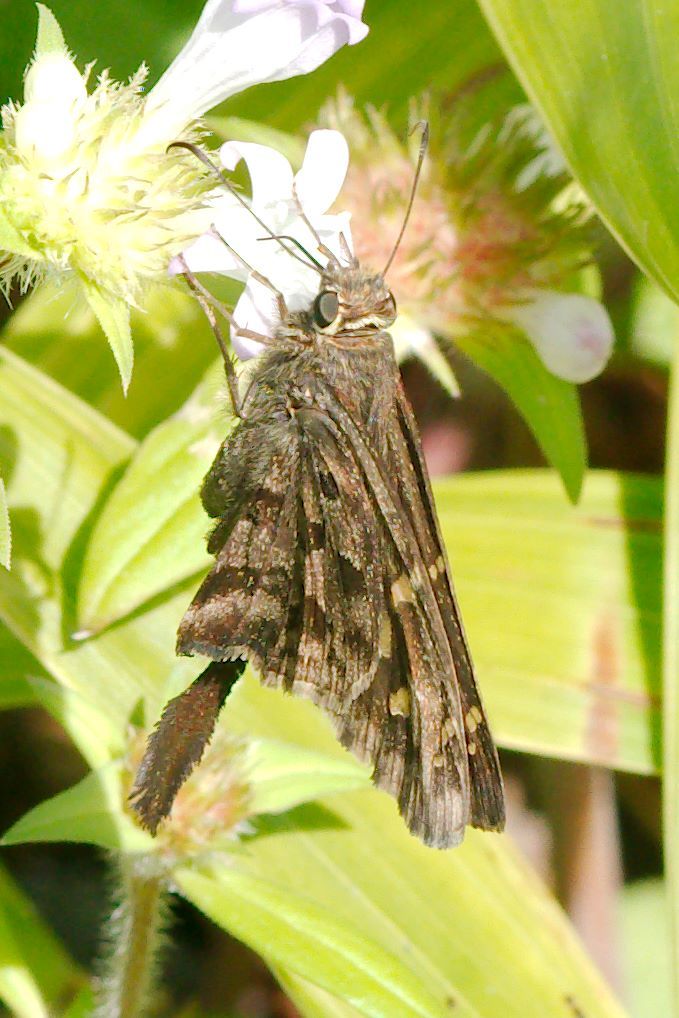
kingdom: Animalia
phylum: Arthropoda
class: Insecta
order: Lepidoptera
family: Hesperiidae
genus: Thorybes
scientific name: Thorybes
